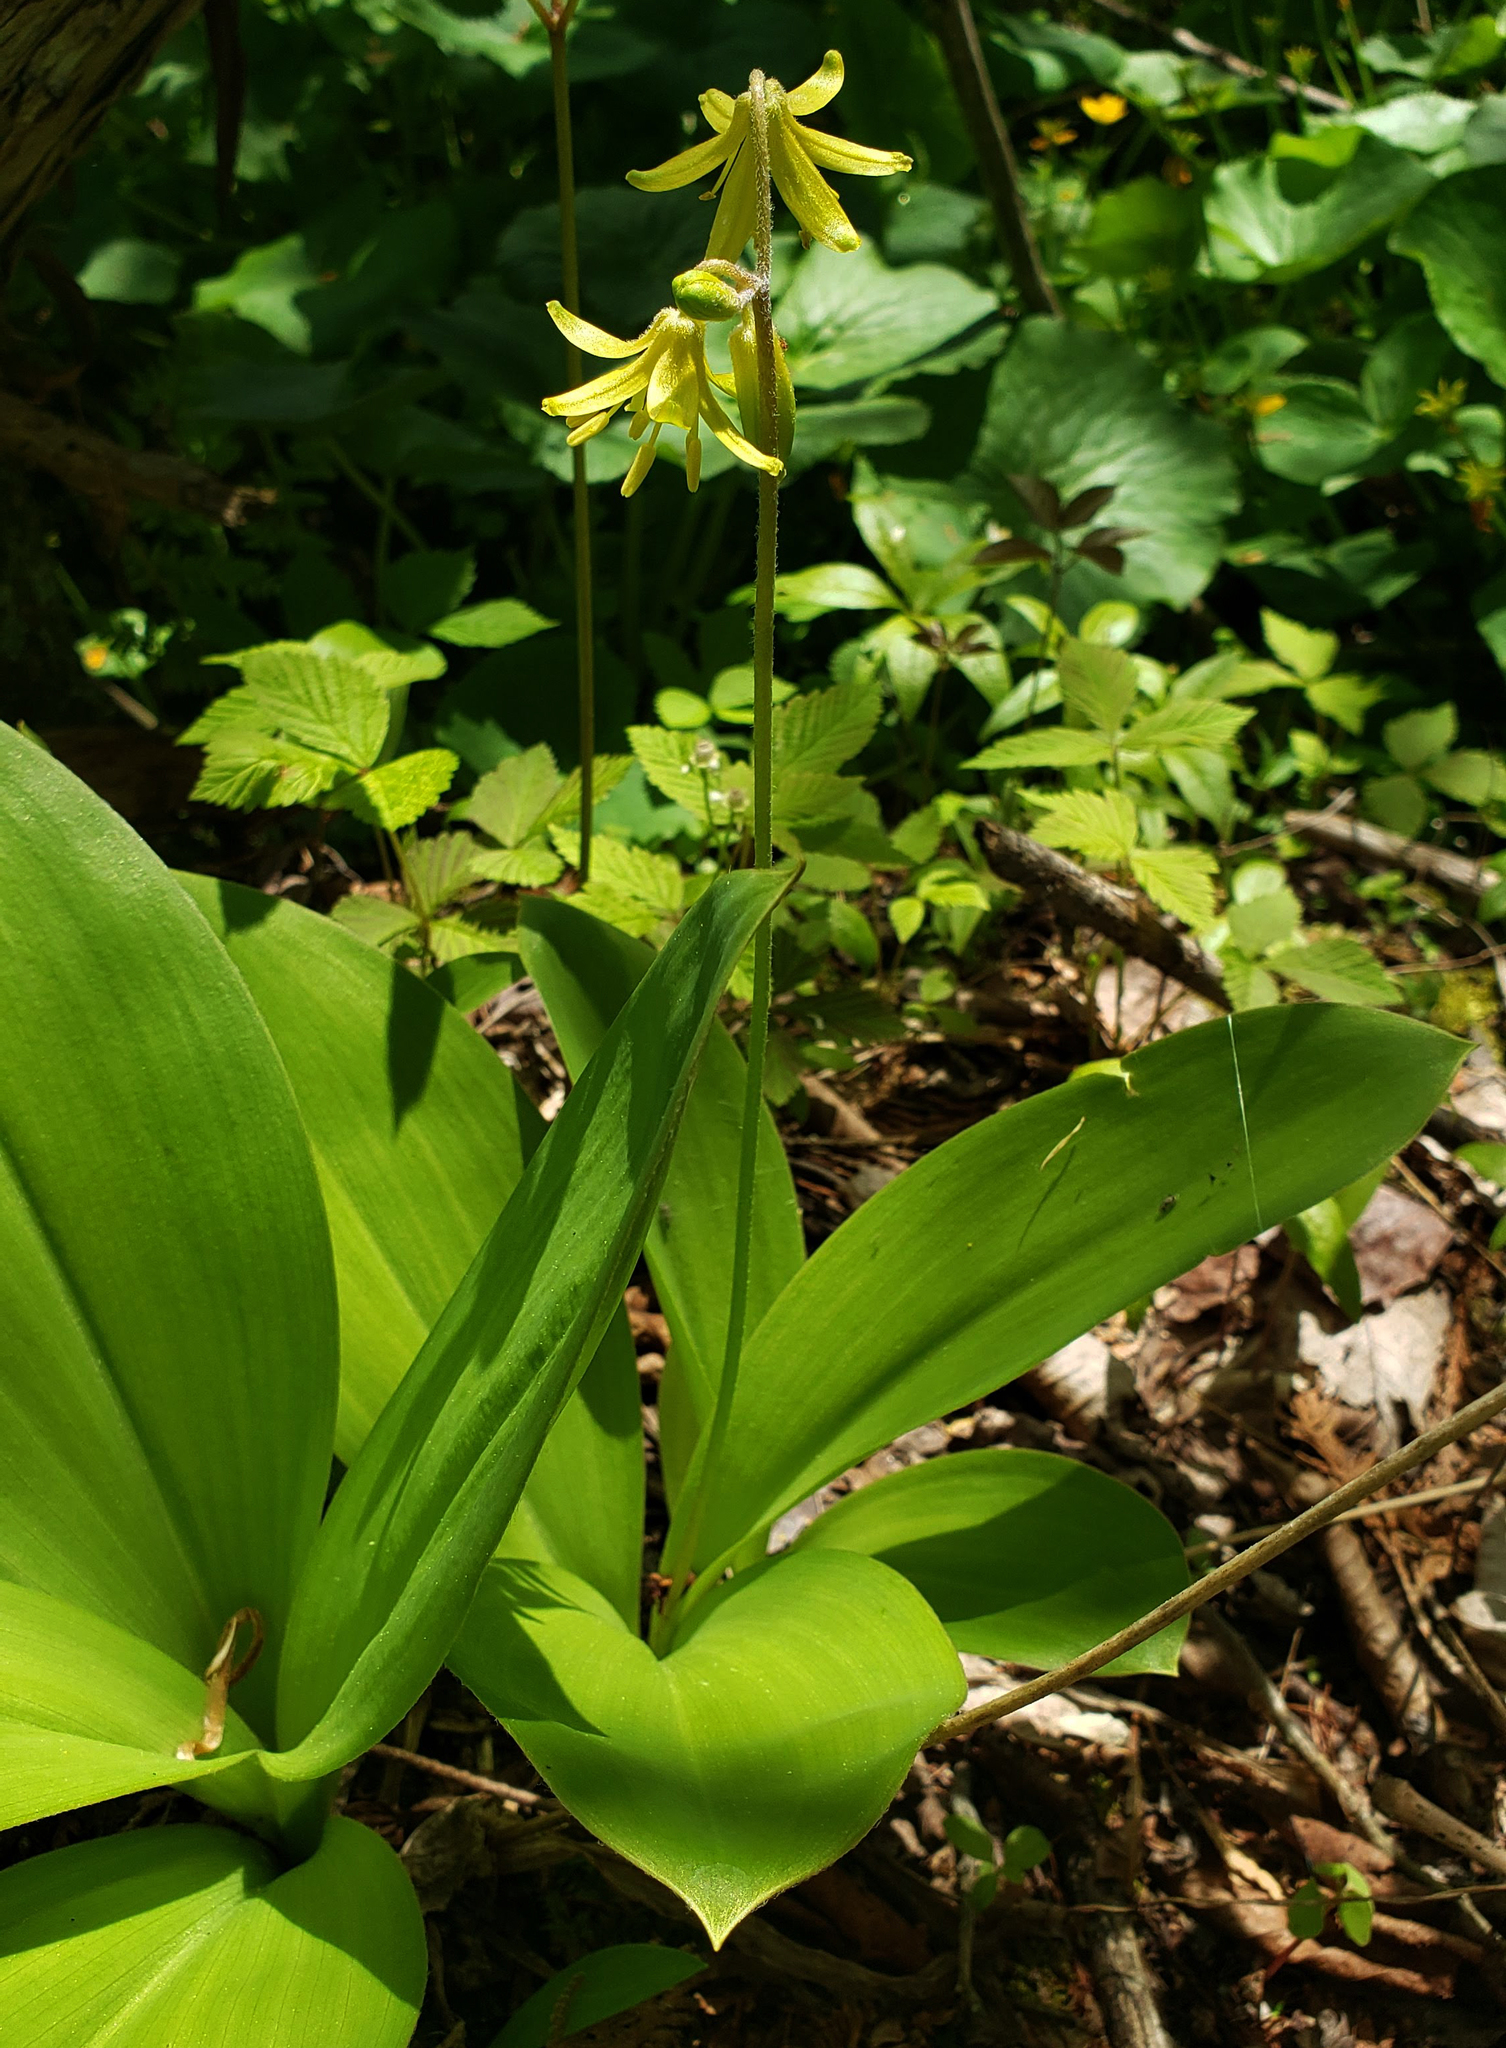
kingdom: Plantae
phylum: Tracheophyta
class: Liliopsida
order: Liliales
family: Liliaceae
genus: Clintonia
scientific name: Clintonia borealis
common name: Yellow clintonia
